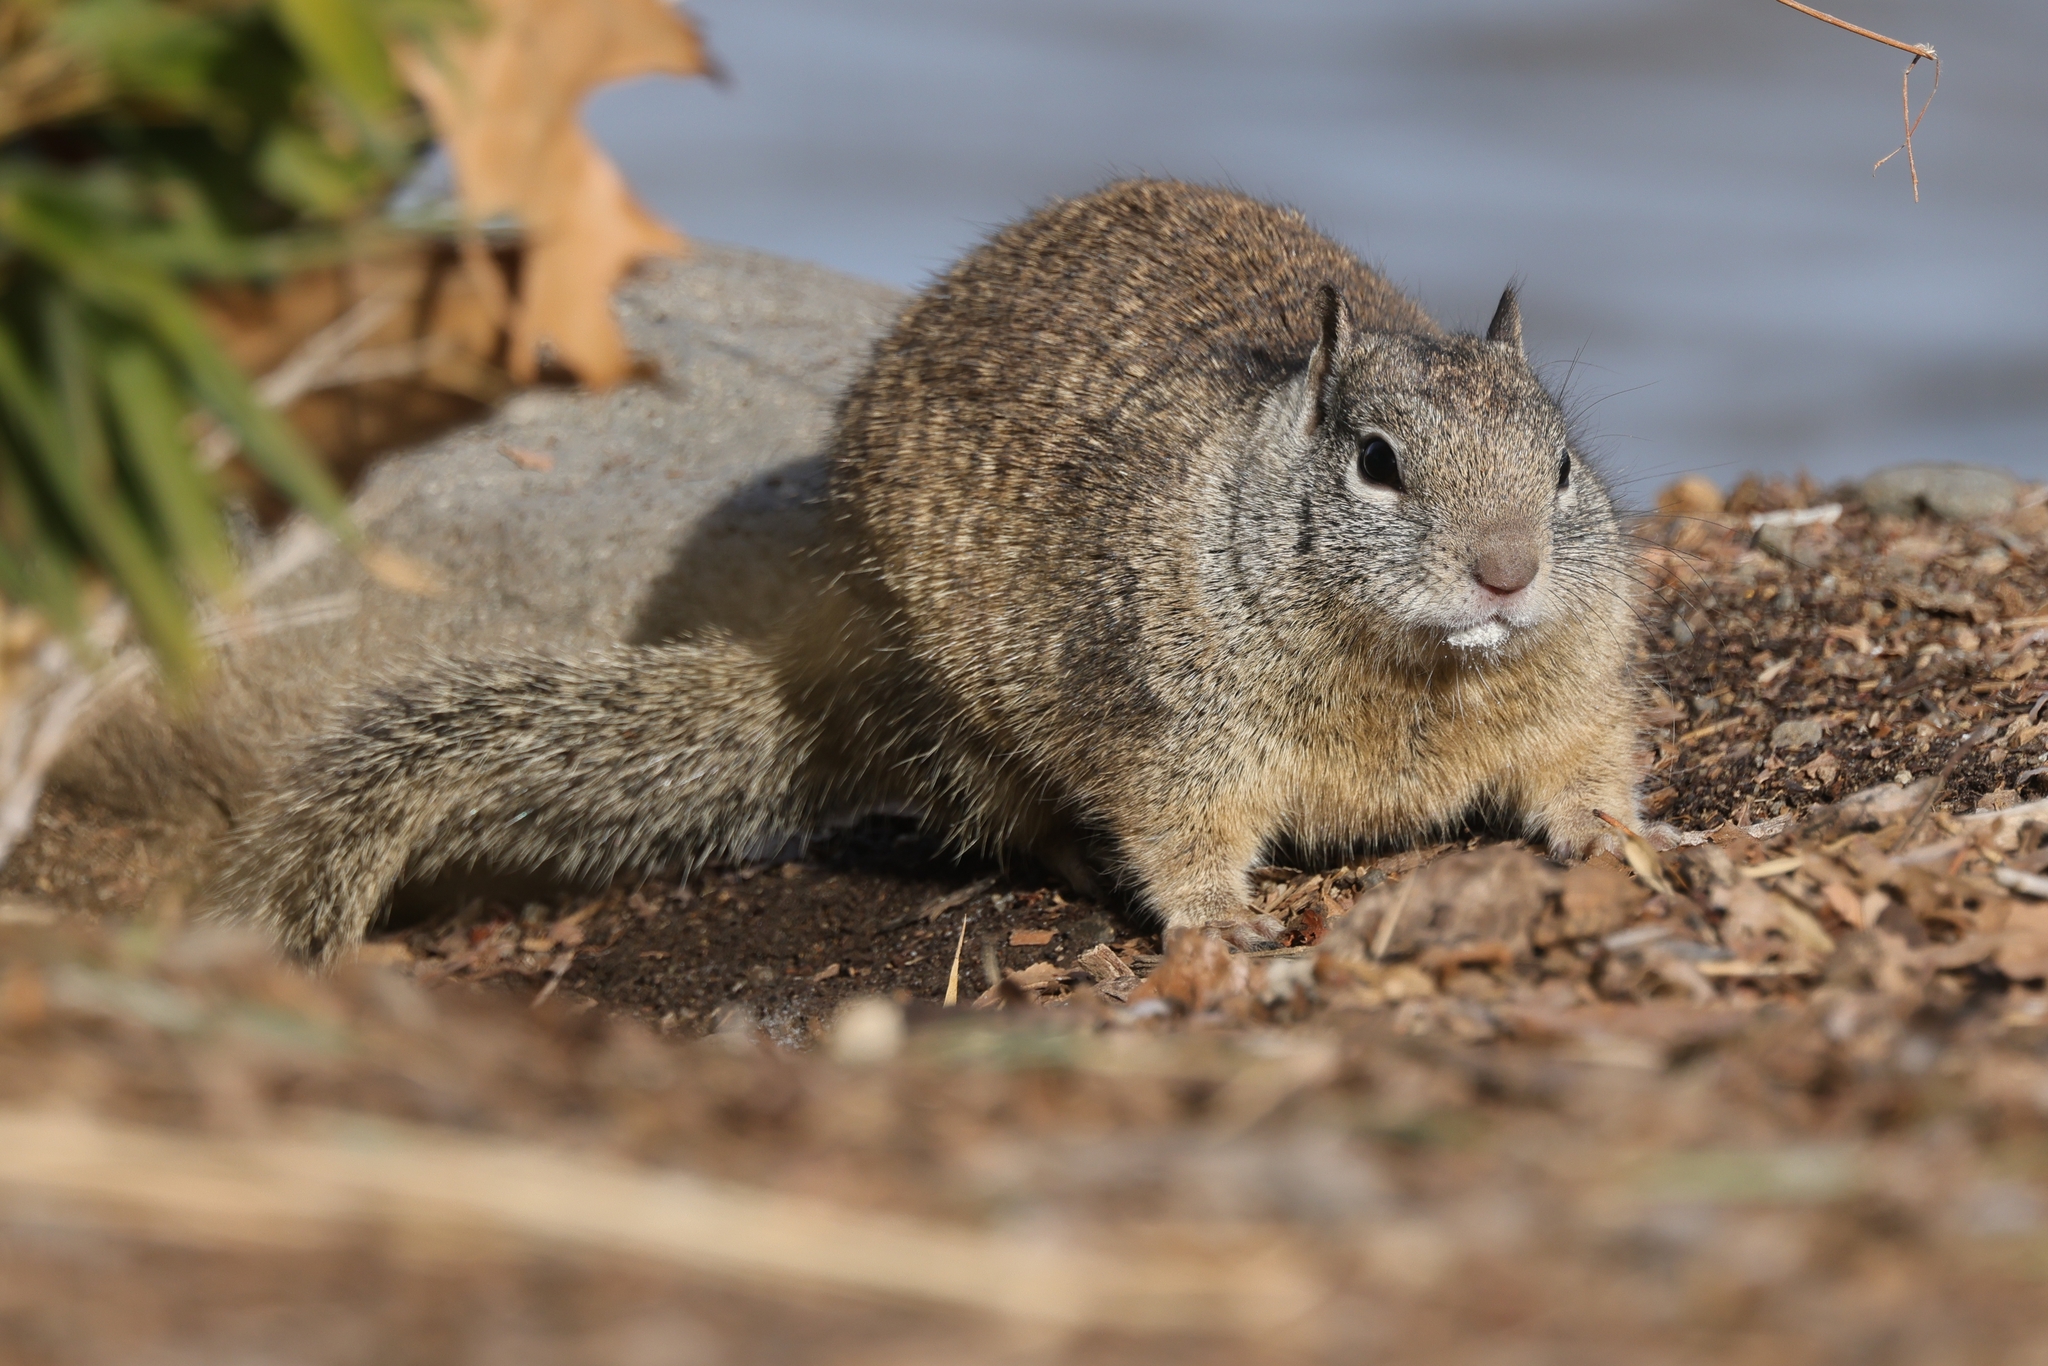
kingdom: Animalia
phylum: Chordata
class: Mammalia
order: Rodentia
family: Sciuridae
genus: Otospermophilus
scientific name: Otospermophilus beecheyi
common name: California ground squirrel
